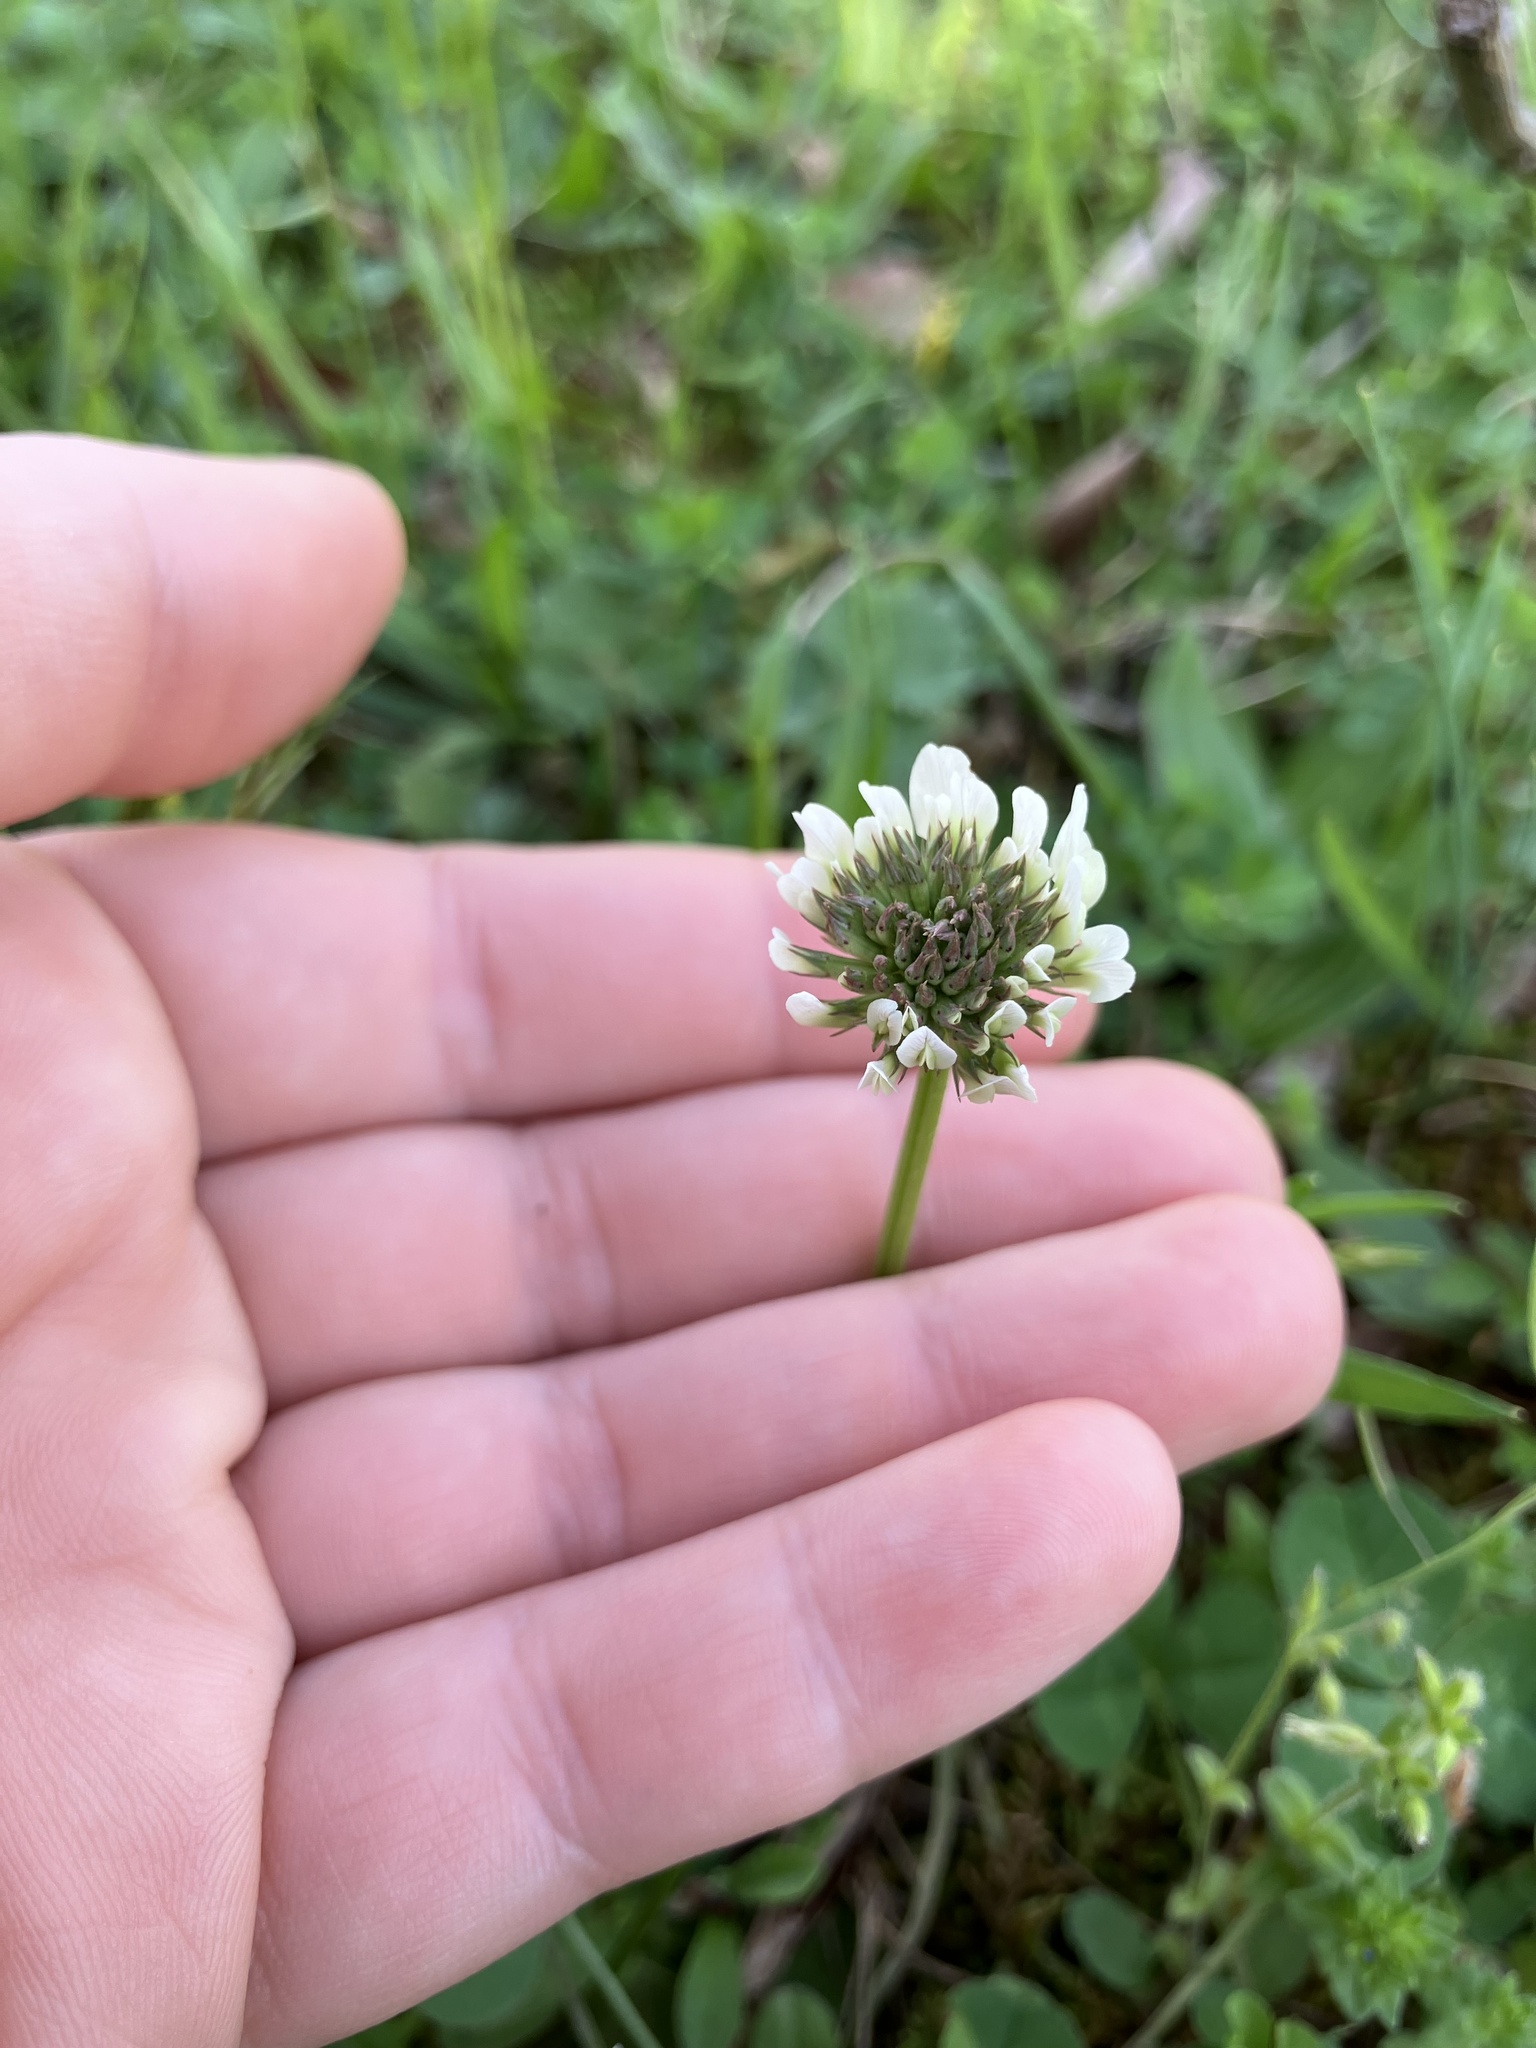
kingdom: Plantae
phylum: Tracheophyta
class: Magnoliopsida
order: Fabales
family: Fabaceae
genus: Trifolium
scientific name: Trifolium repens
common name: White clover
